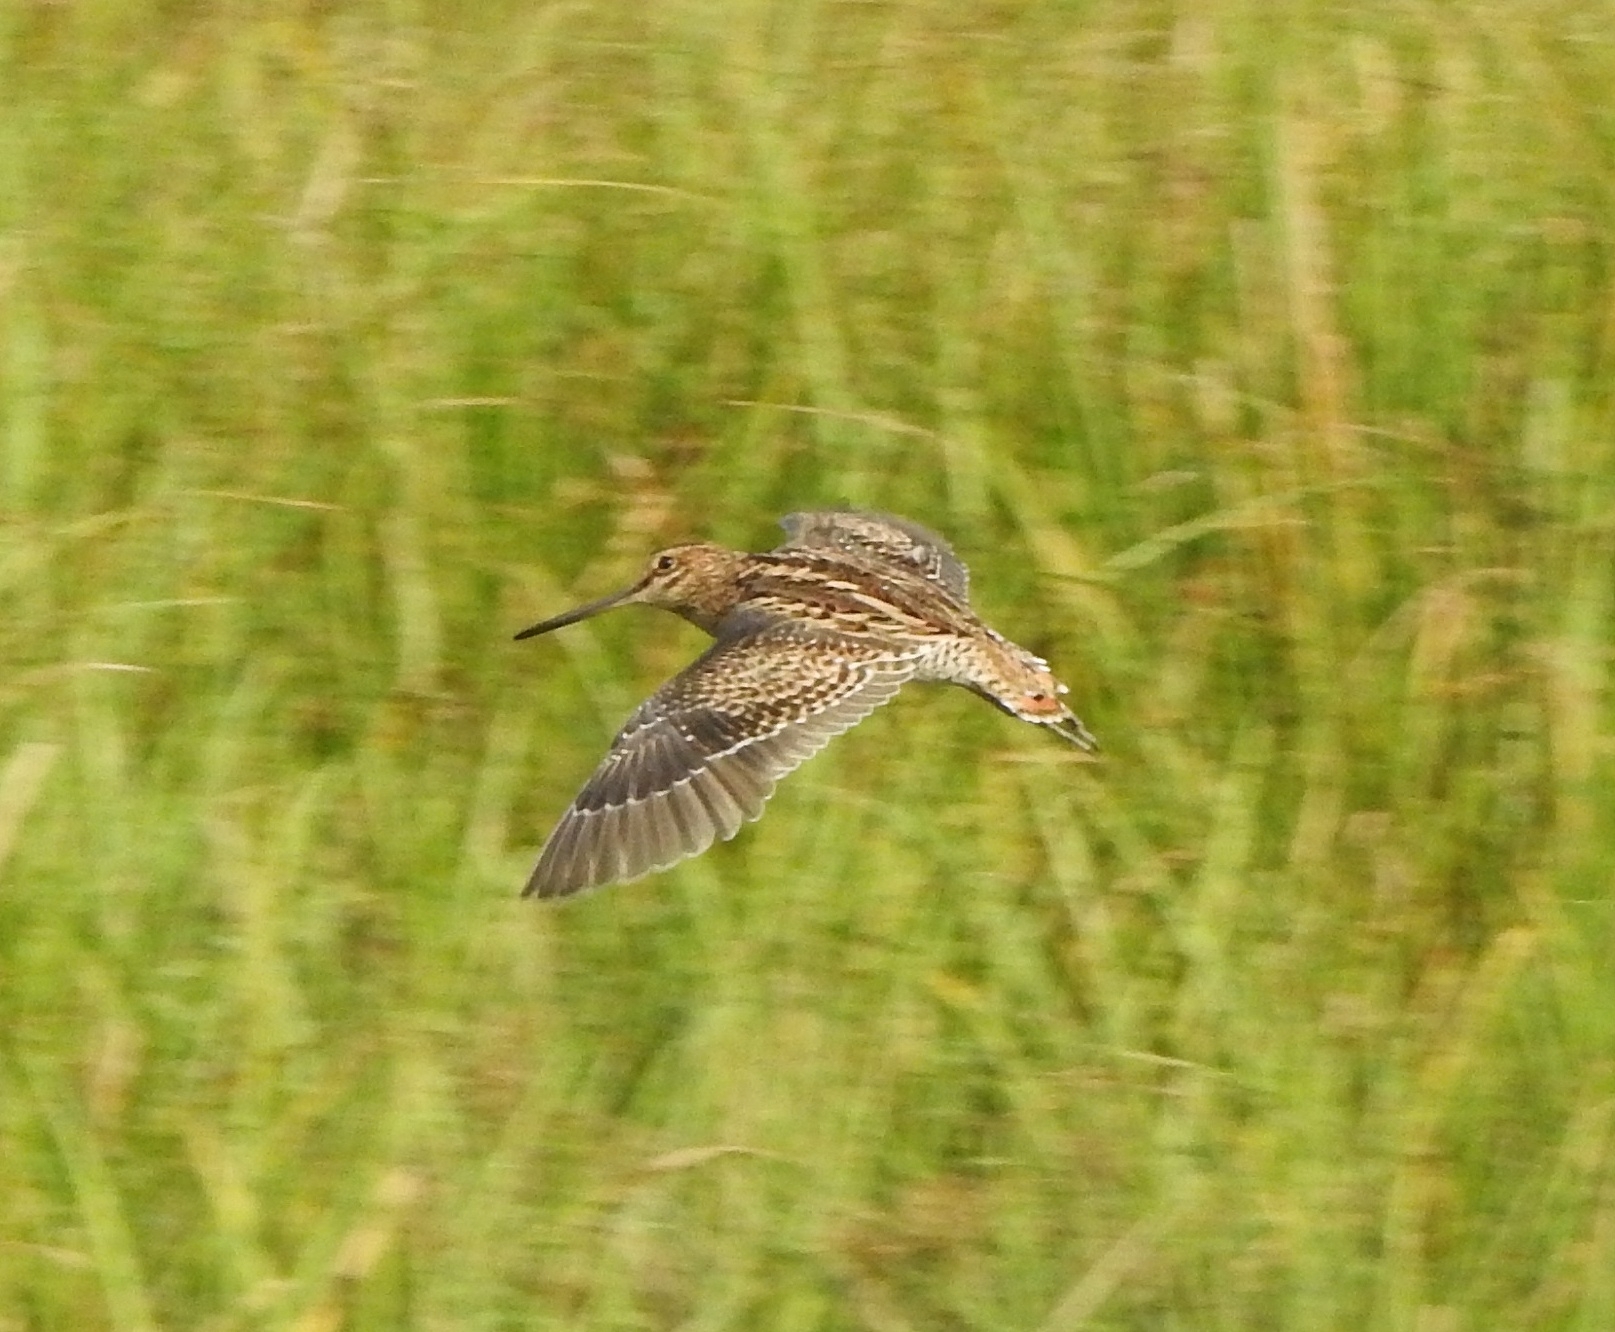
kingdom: Animalia
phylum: Chordata
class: Aves
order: Charadriiformes
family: Scolopacidae
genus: Gallinago
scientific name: Gallinago stenura
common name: Pin-tailed snipe
